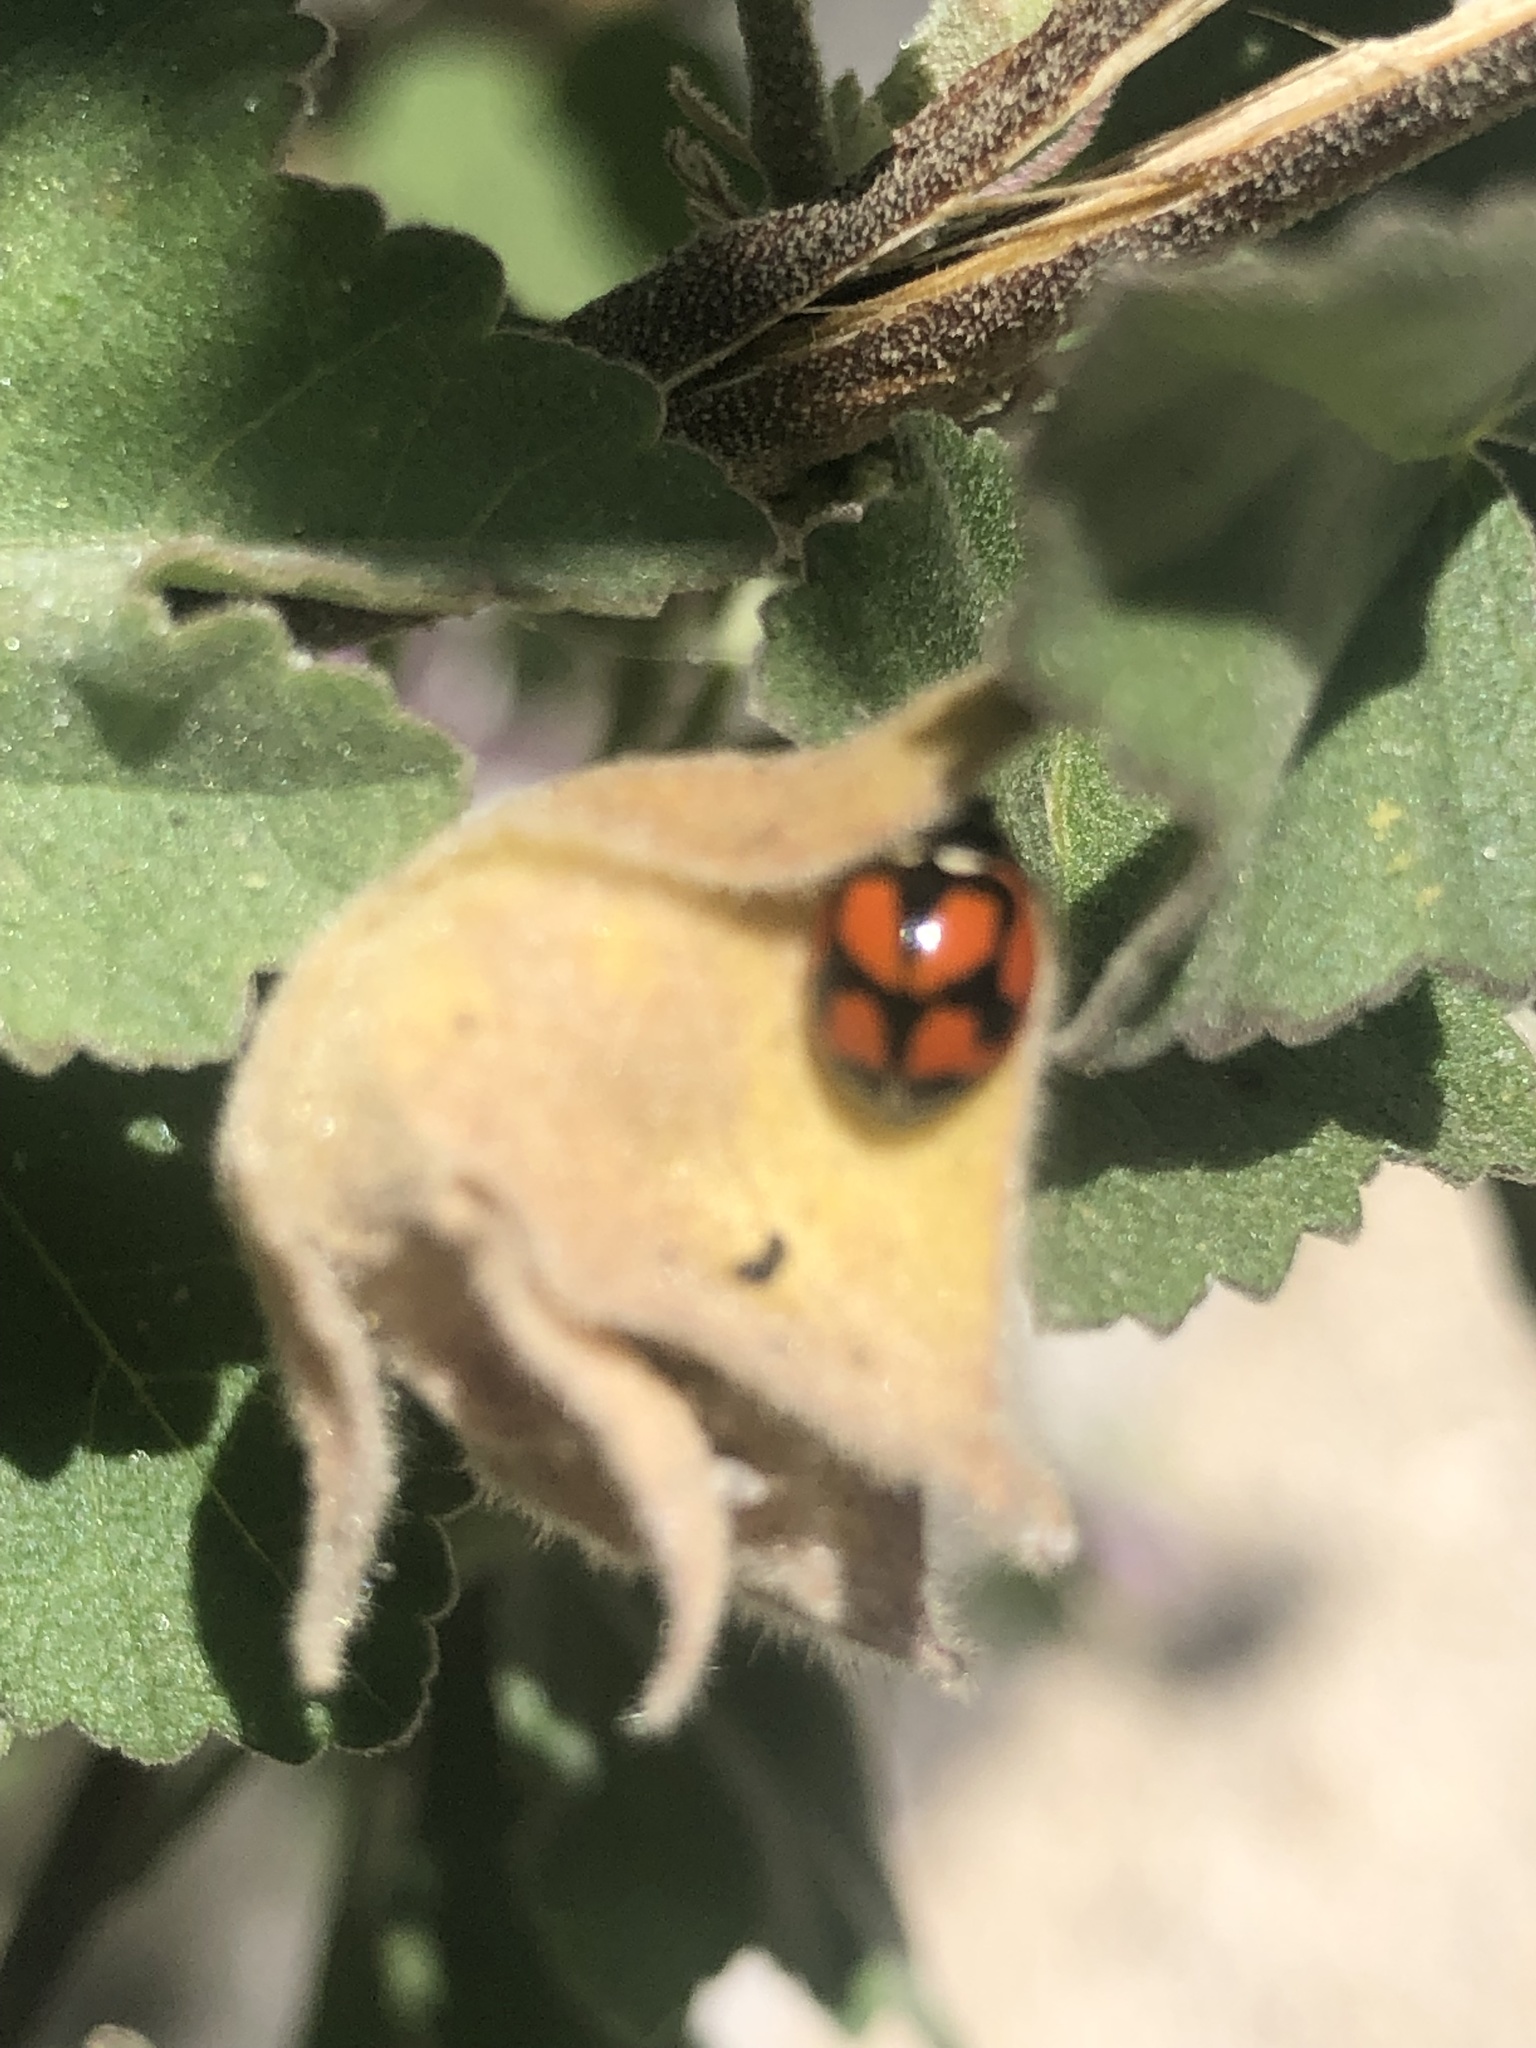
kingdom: Animalia
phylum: Arthropoda
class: Insecta
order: Coleoptera
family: Coccinellidae
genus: Adalia
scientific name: Adalia deficiens
